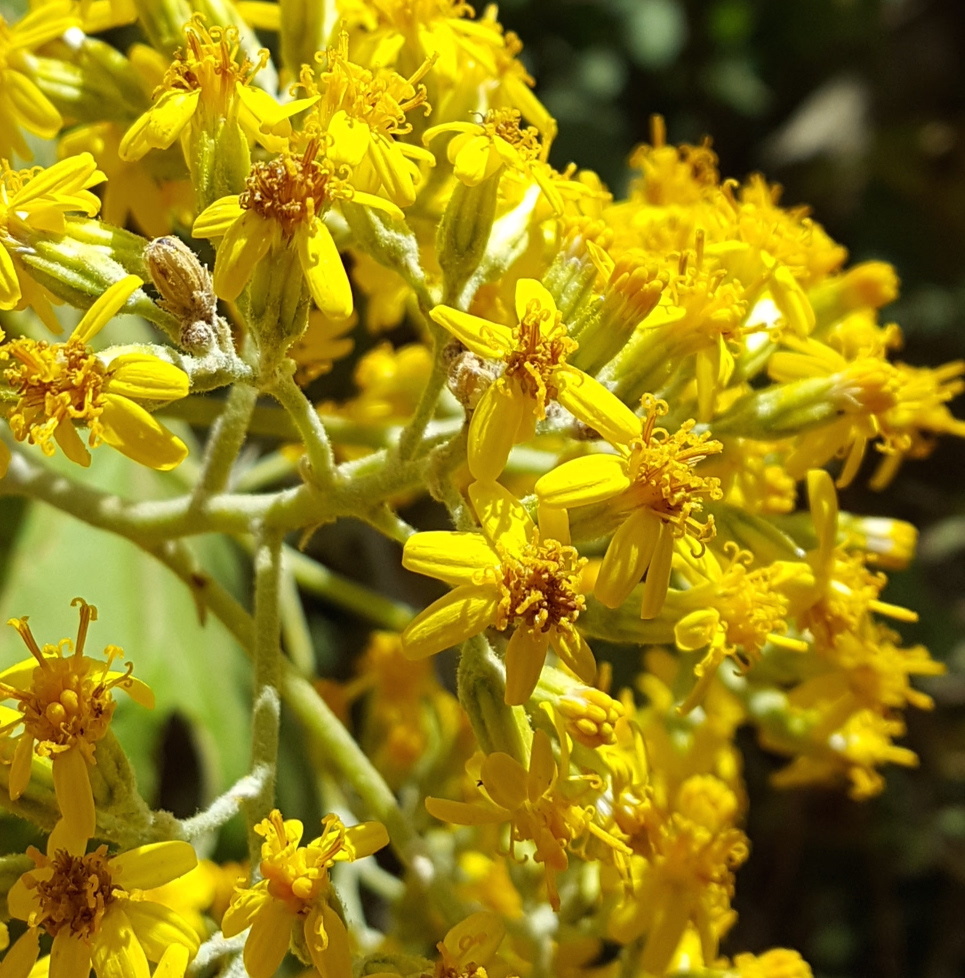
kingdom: Plantae
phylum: Tracheophyta
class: Magnoliopsida
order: Asterales
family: Asteraceae
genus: Roldana
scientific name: Roldana lobata
